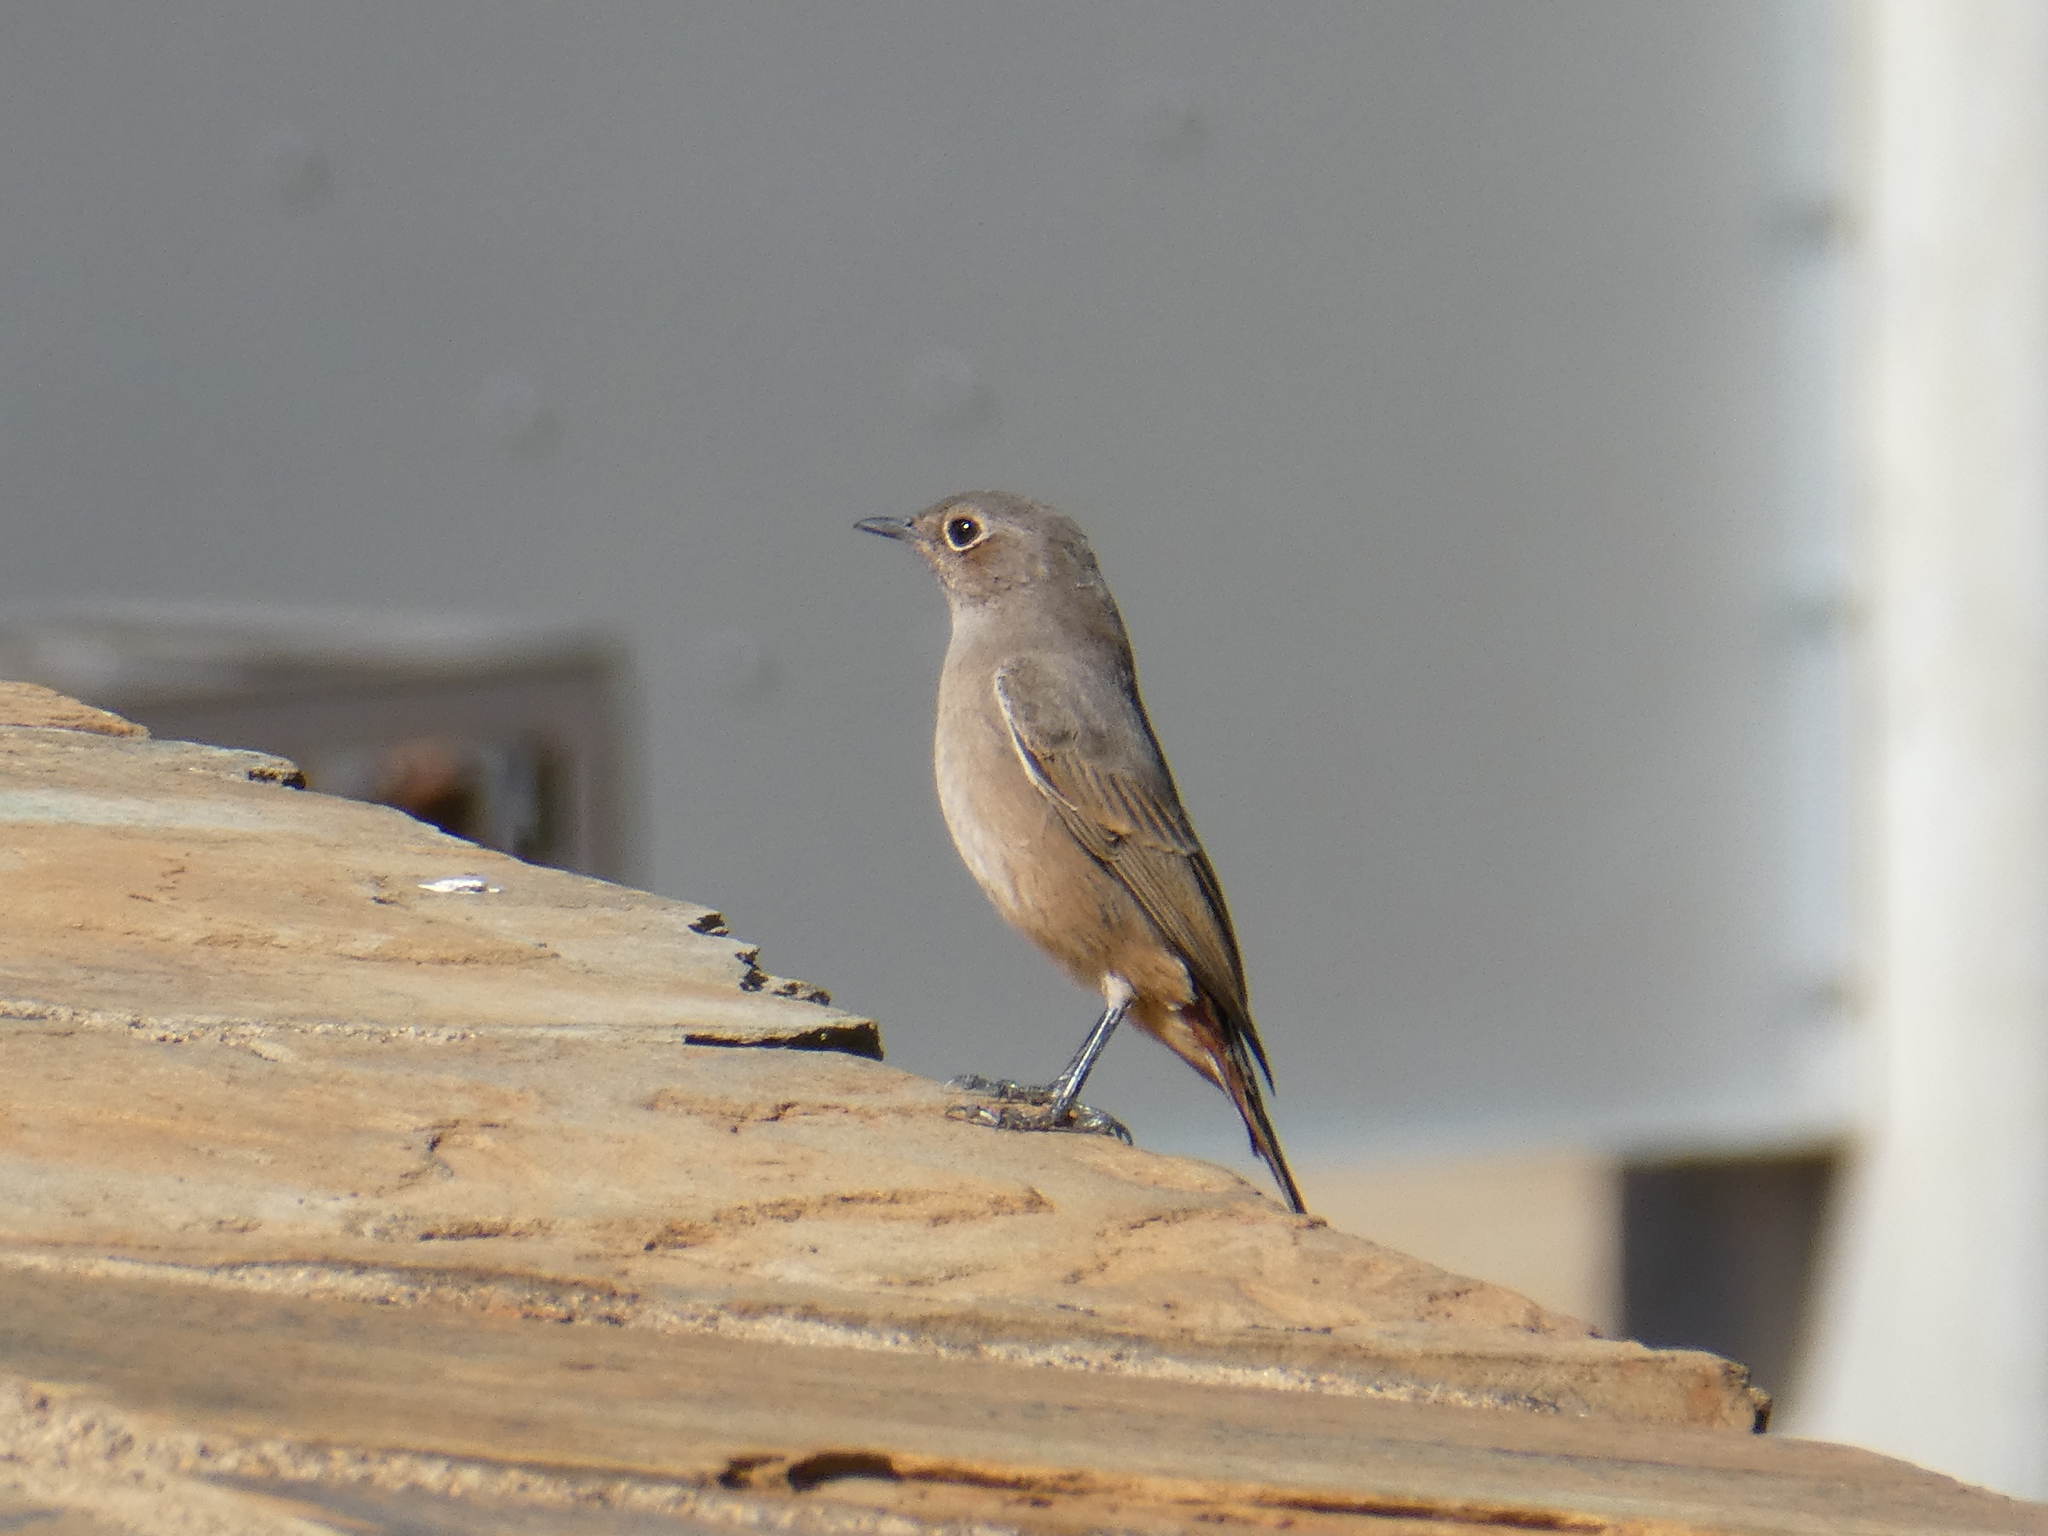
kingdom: Animalia
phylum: Chordata
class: Aves
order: Passeriformes
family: Muscicapidae
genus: Oenanthe
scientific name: Oenanthe familiaris
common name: Familiar chat
